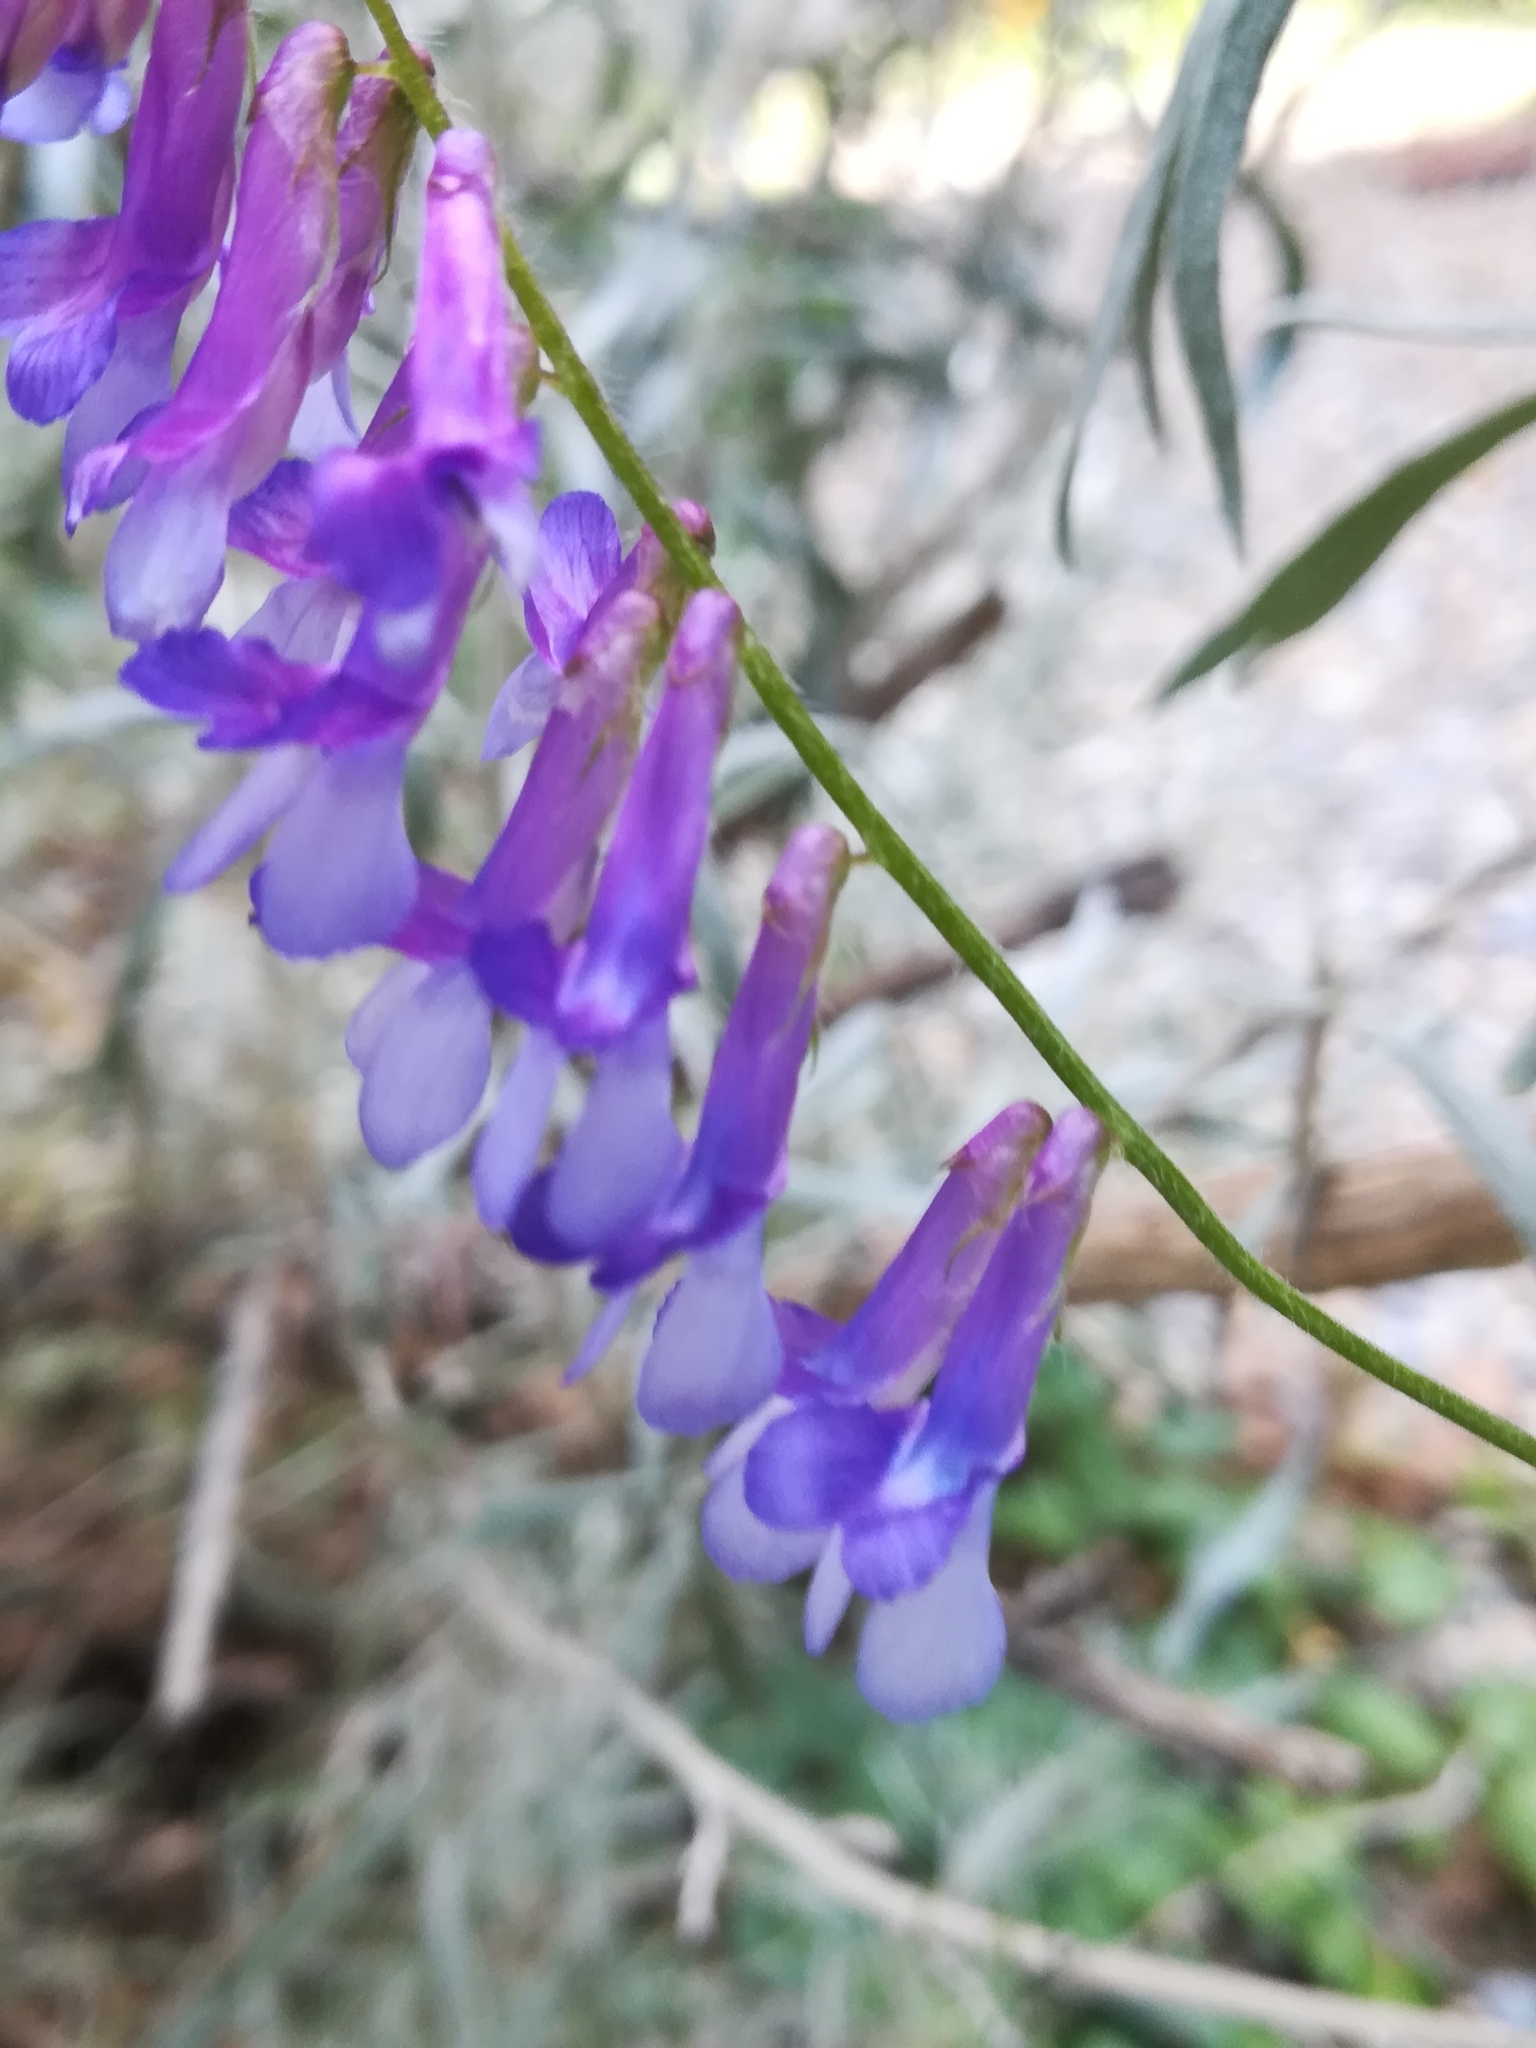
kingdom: Plantae
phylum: Tracheophyta
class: Magnoliopsida
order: Fabales
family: Fabaceae
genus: Vicia
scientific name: Vicia americana
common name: American vetch
